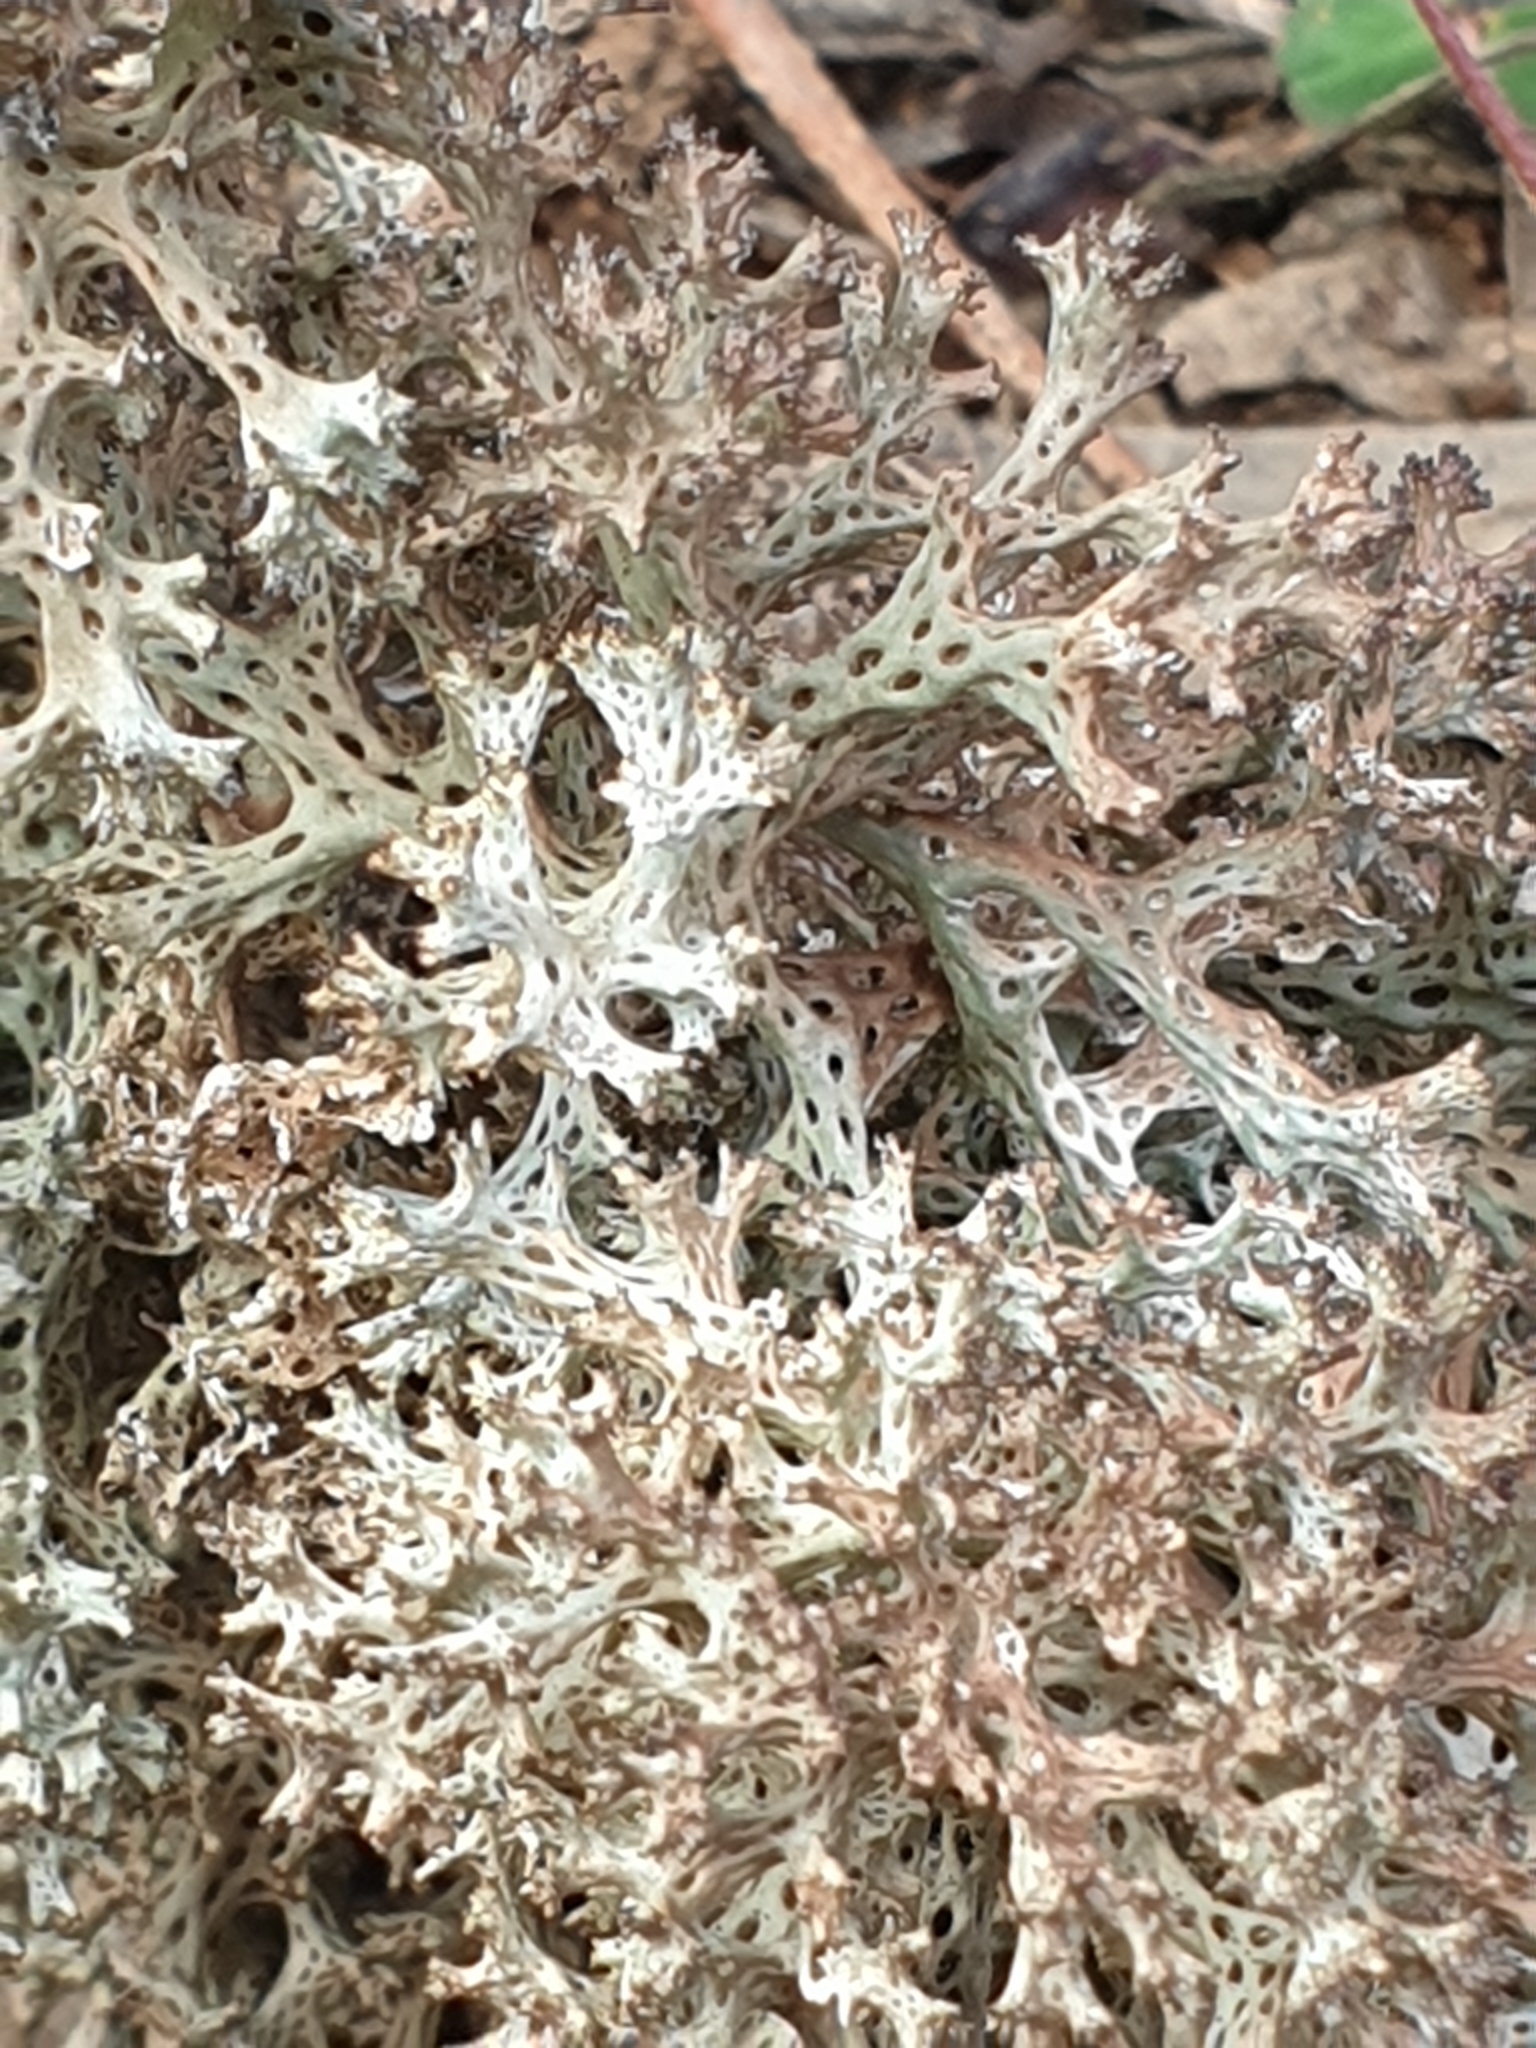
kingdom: Fungi
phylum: Ascomycota
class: Lecanoromycetes
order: Lecanorales
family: Cladoniaceae
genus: Pulchrocladia
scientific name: Pulchrocladia retipora
